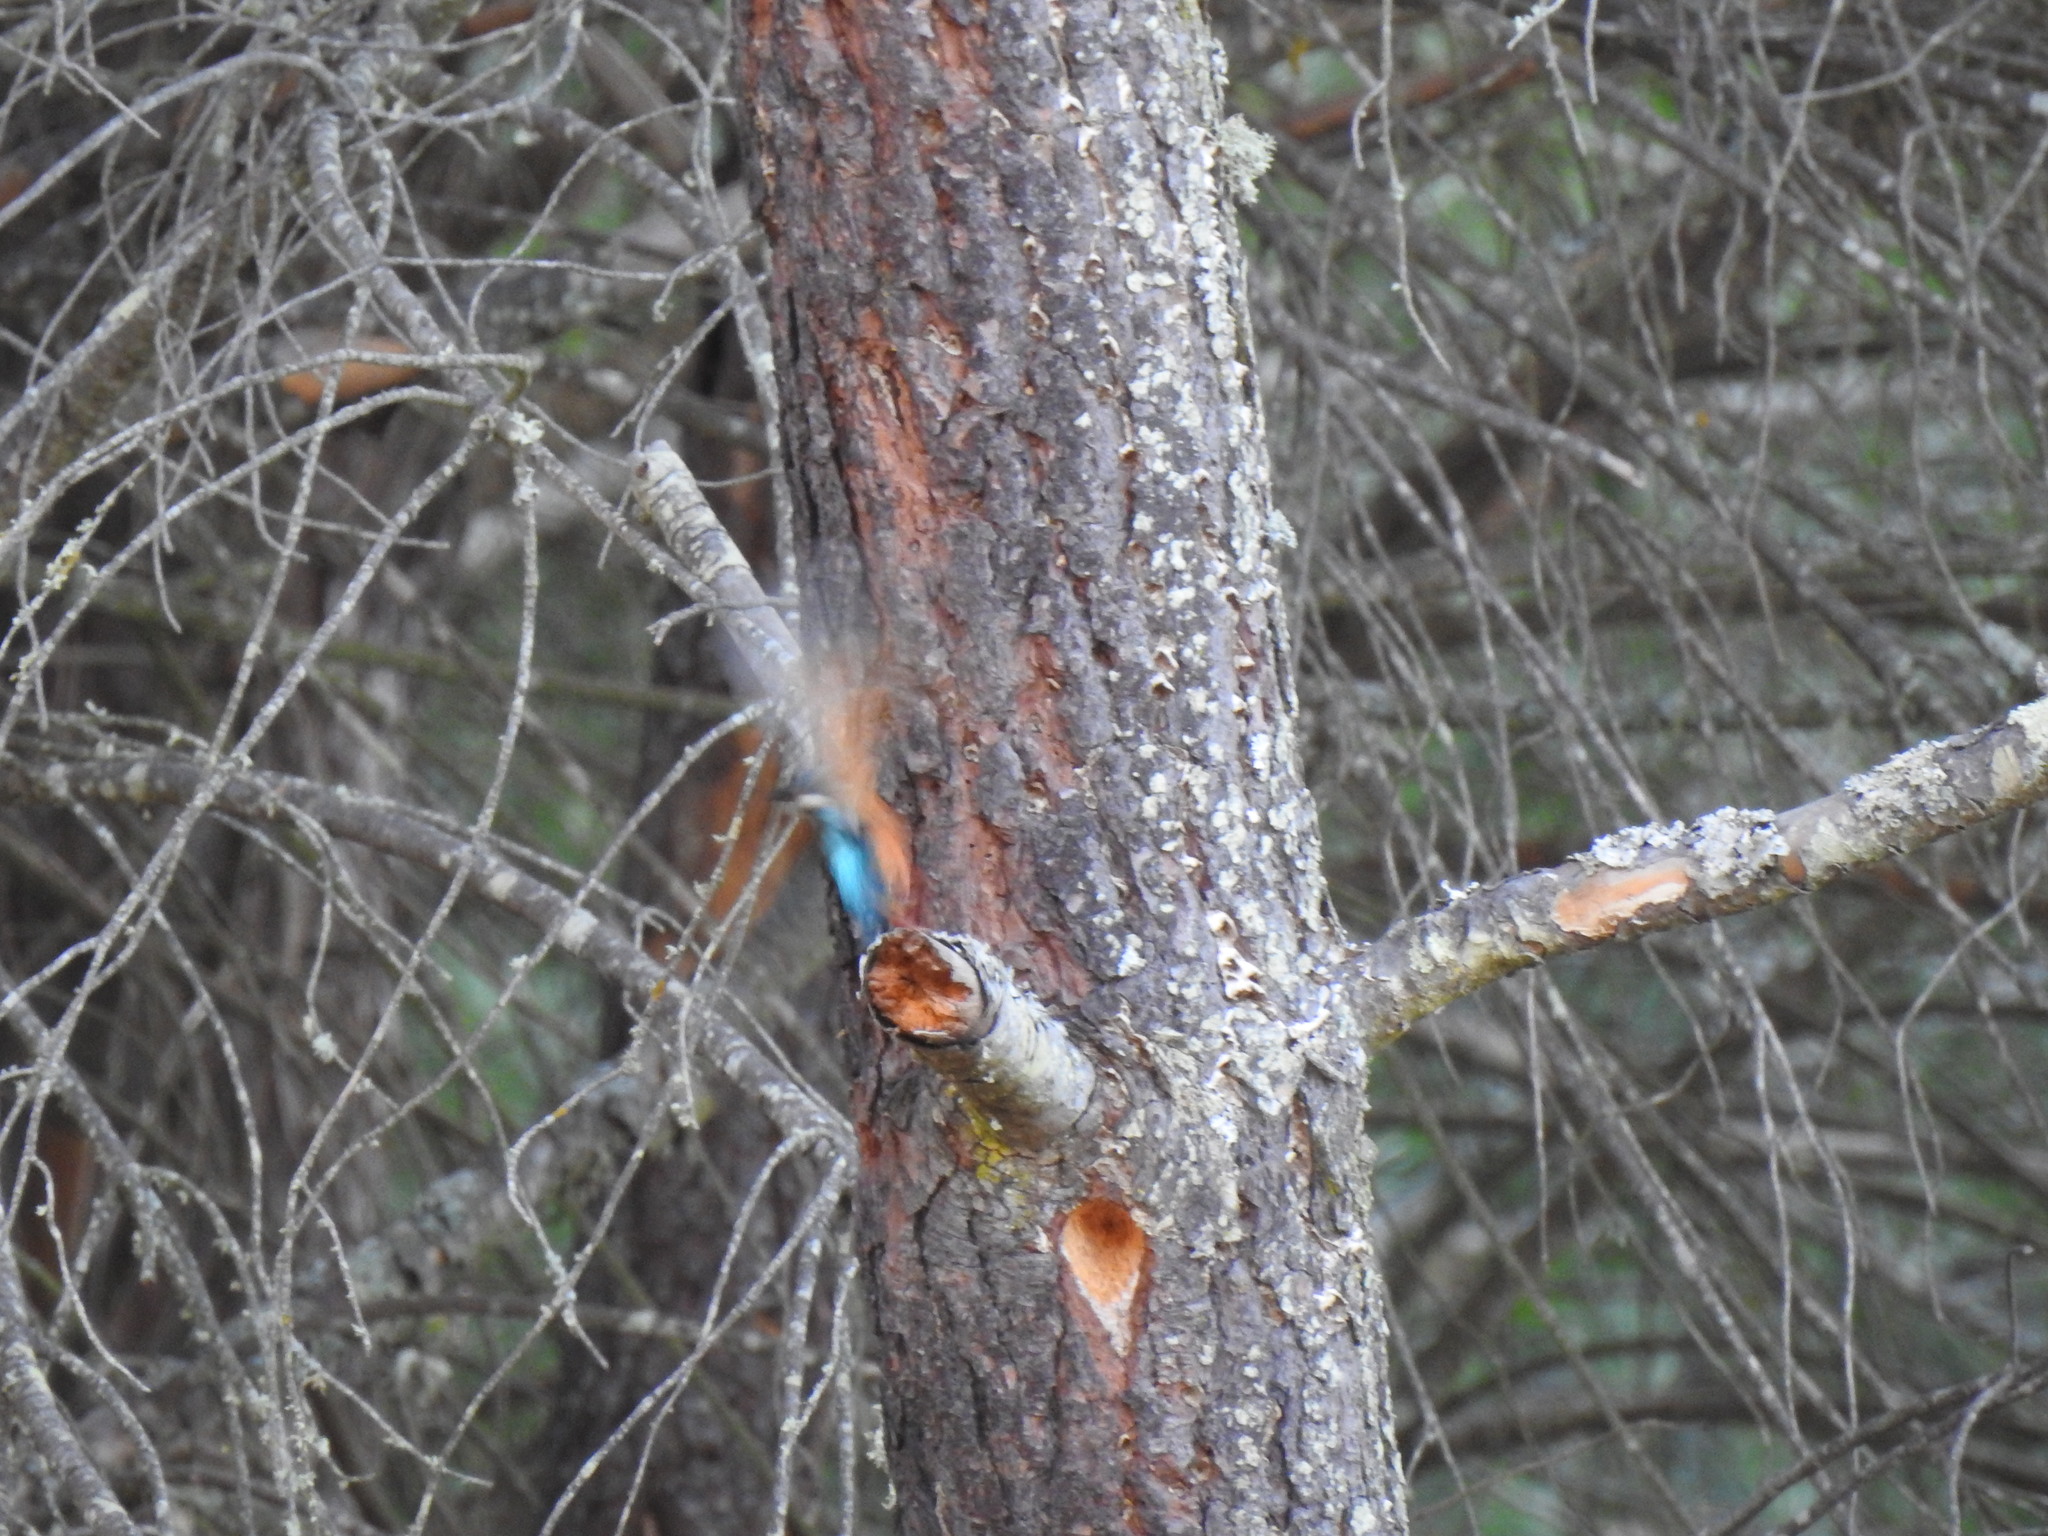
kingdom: Animalia
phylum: Chordata
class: Aves
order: Coraciiformes
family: Alcedinidae
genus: Alcedo
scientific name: Alcedo atthis
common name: Common kingfisher
